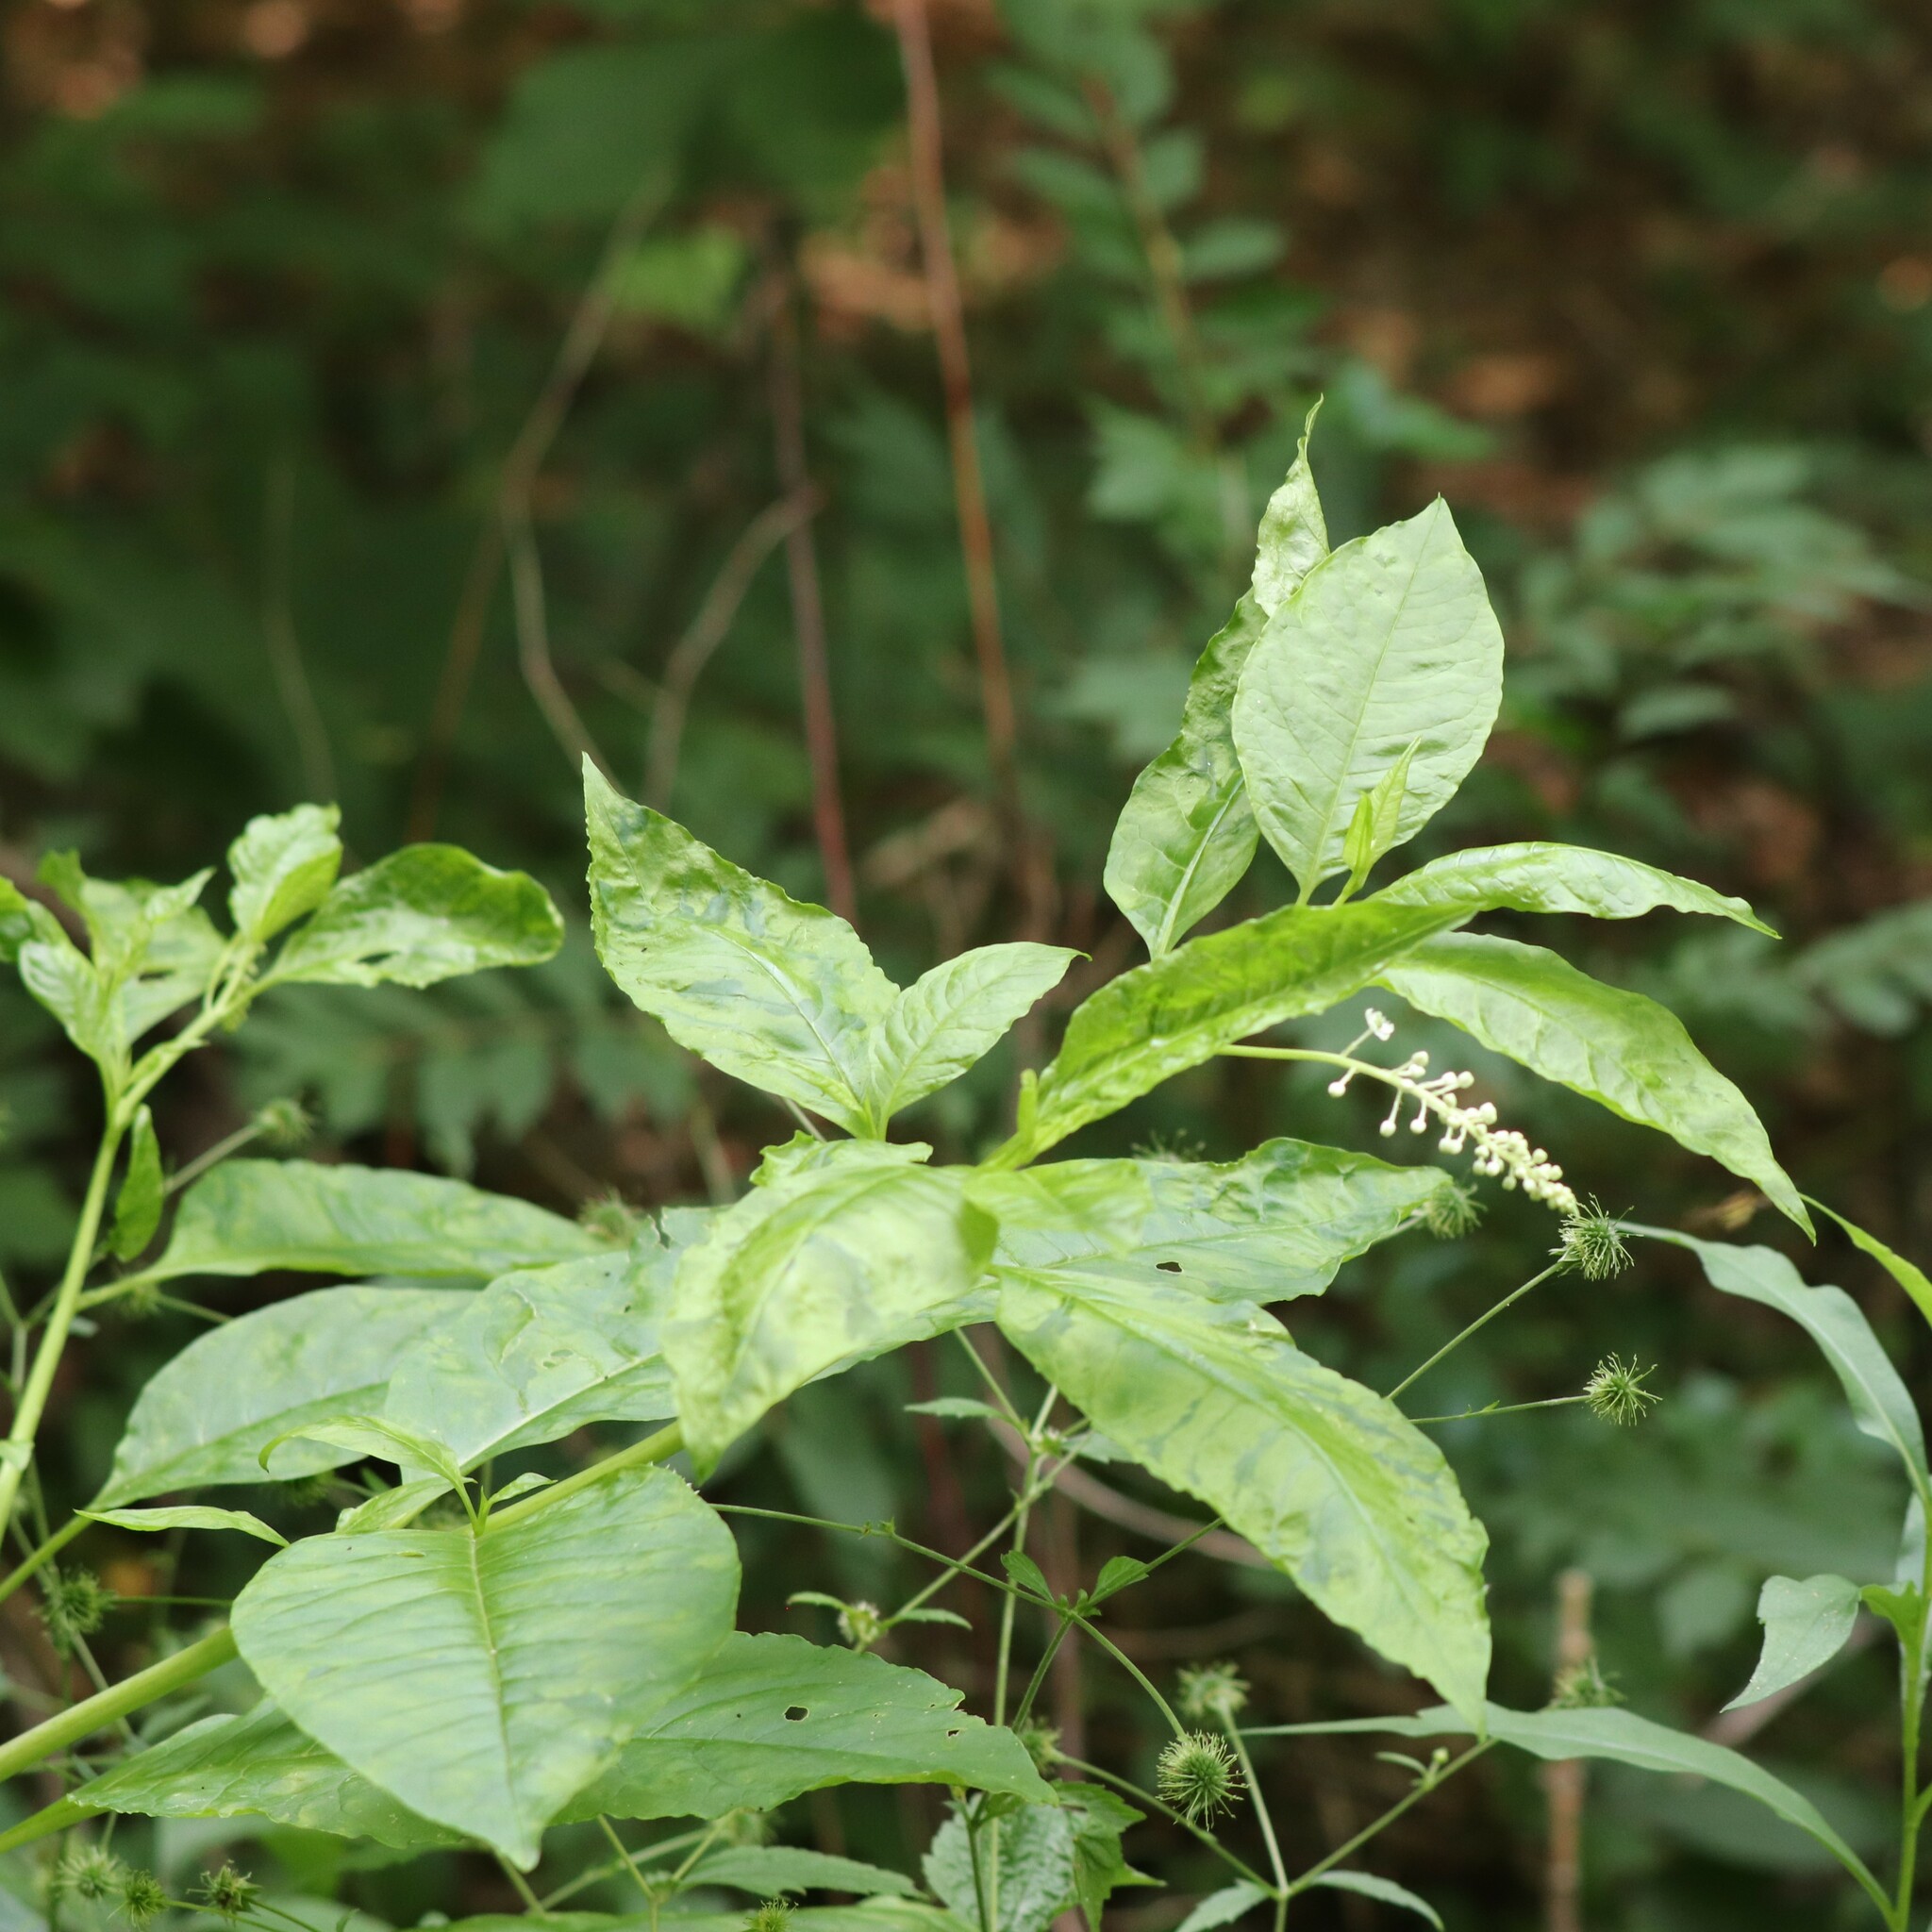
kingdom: Viruses
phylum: Pisuviricota
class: Stelpaviricetes
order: Patatavirales
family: Potyviridae
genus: Potyvirus
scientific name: Potyvirus Pokeweed mosaic virus
